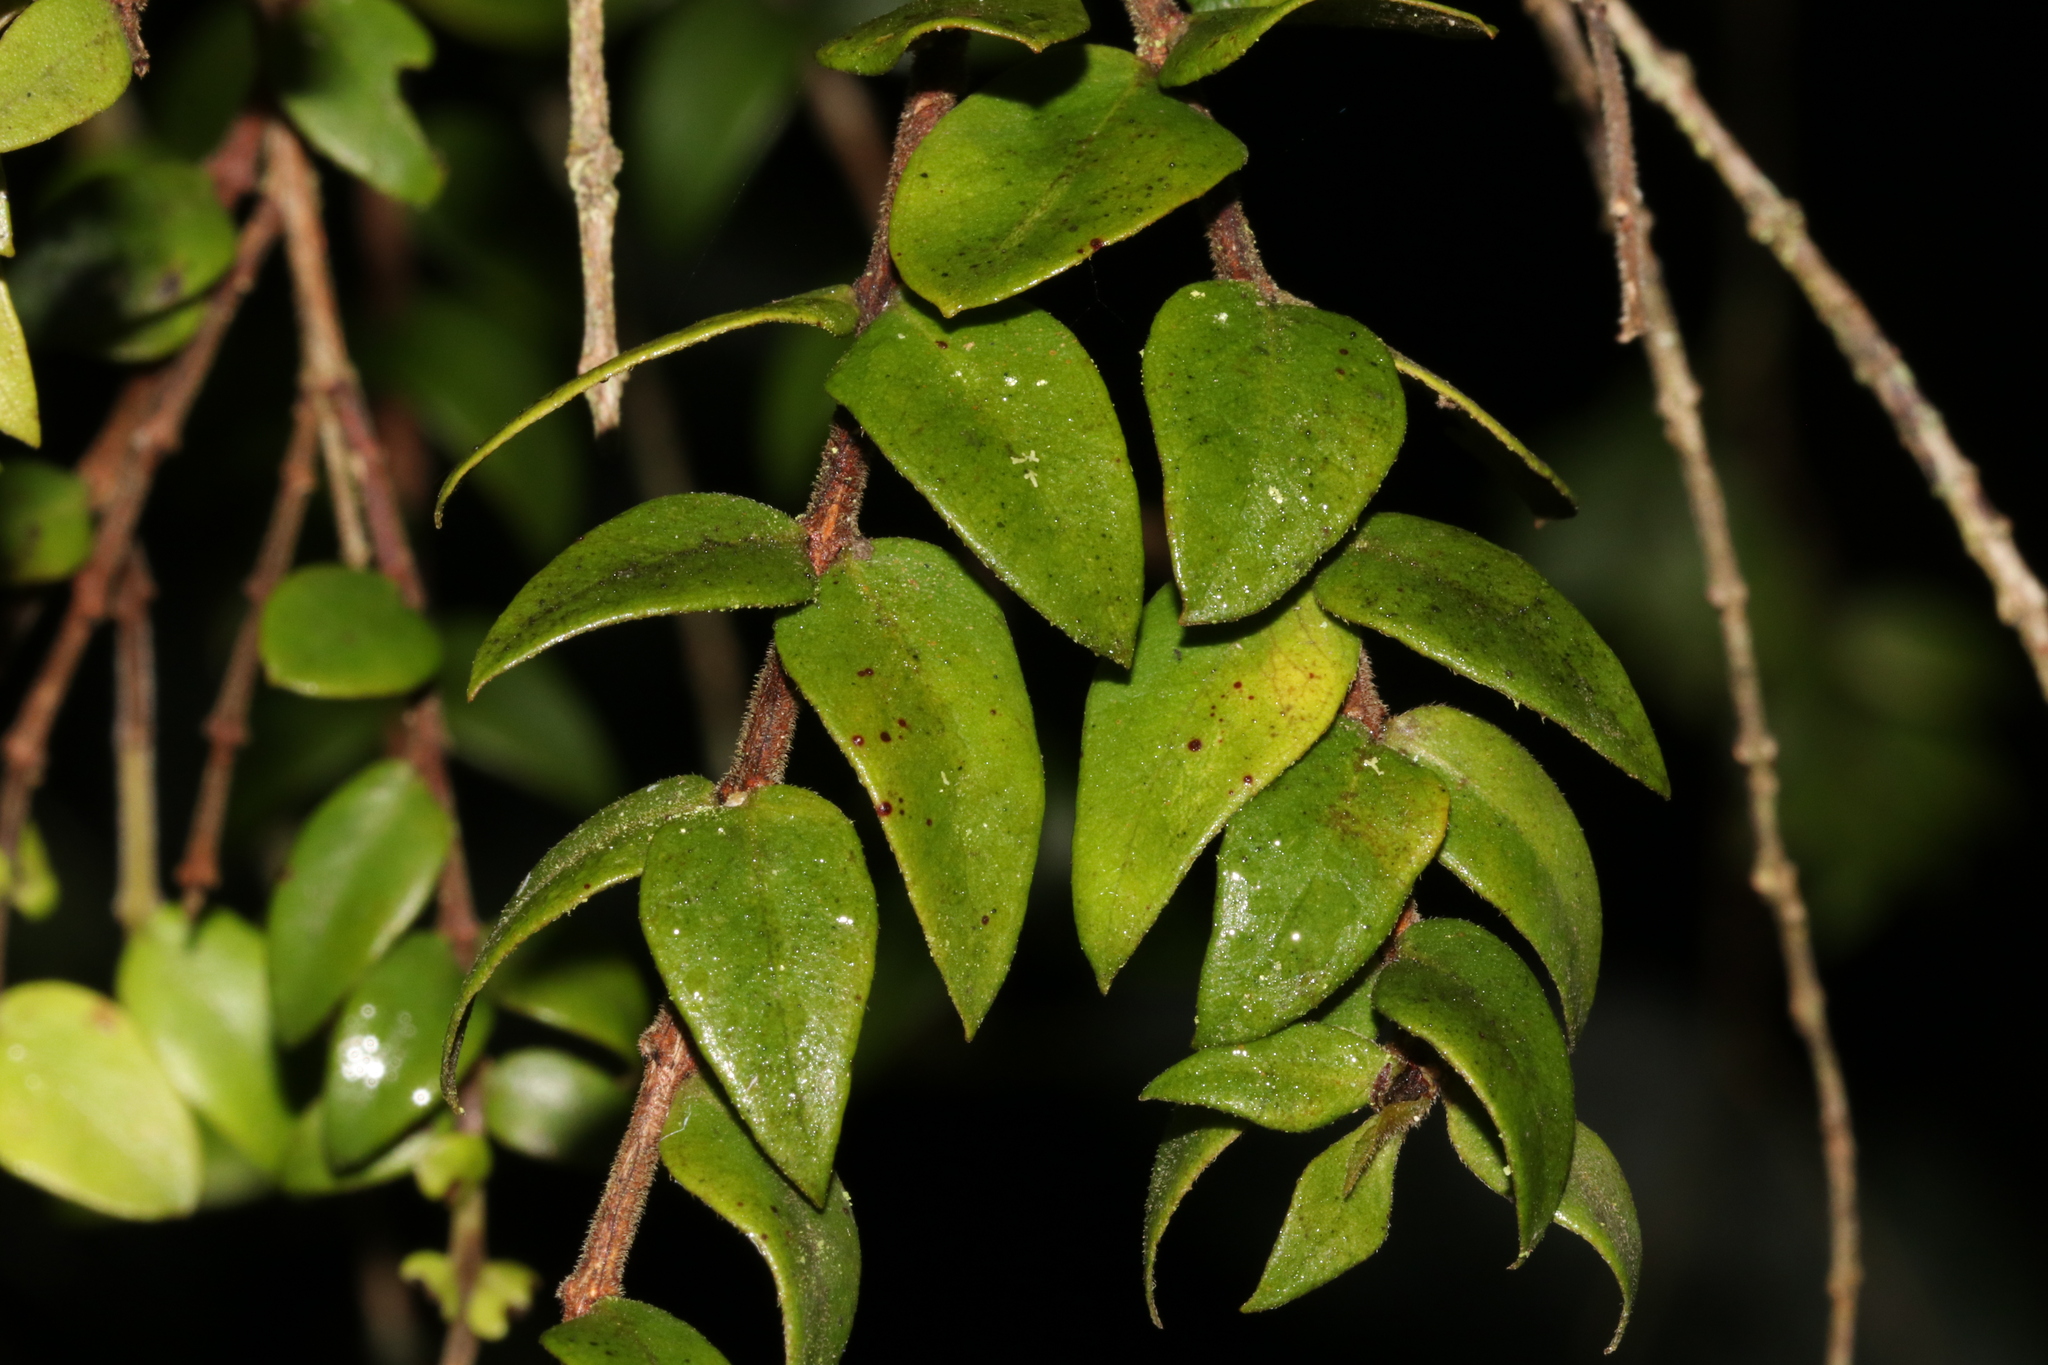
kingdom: Plantae
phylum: Tracheophyta
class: Magnoliopsida
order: Myrtales
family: Myrtaceae
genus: Metrosideros
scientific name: Metrosideros colensoi
